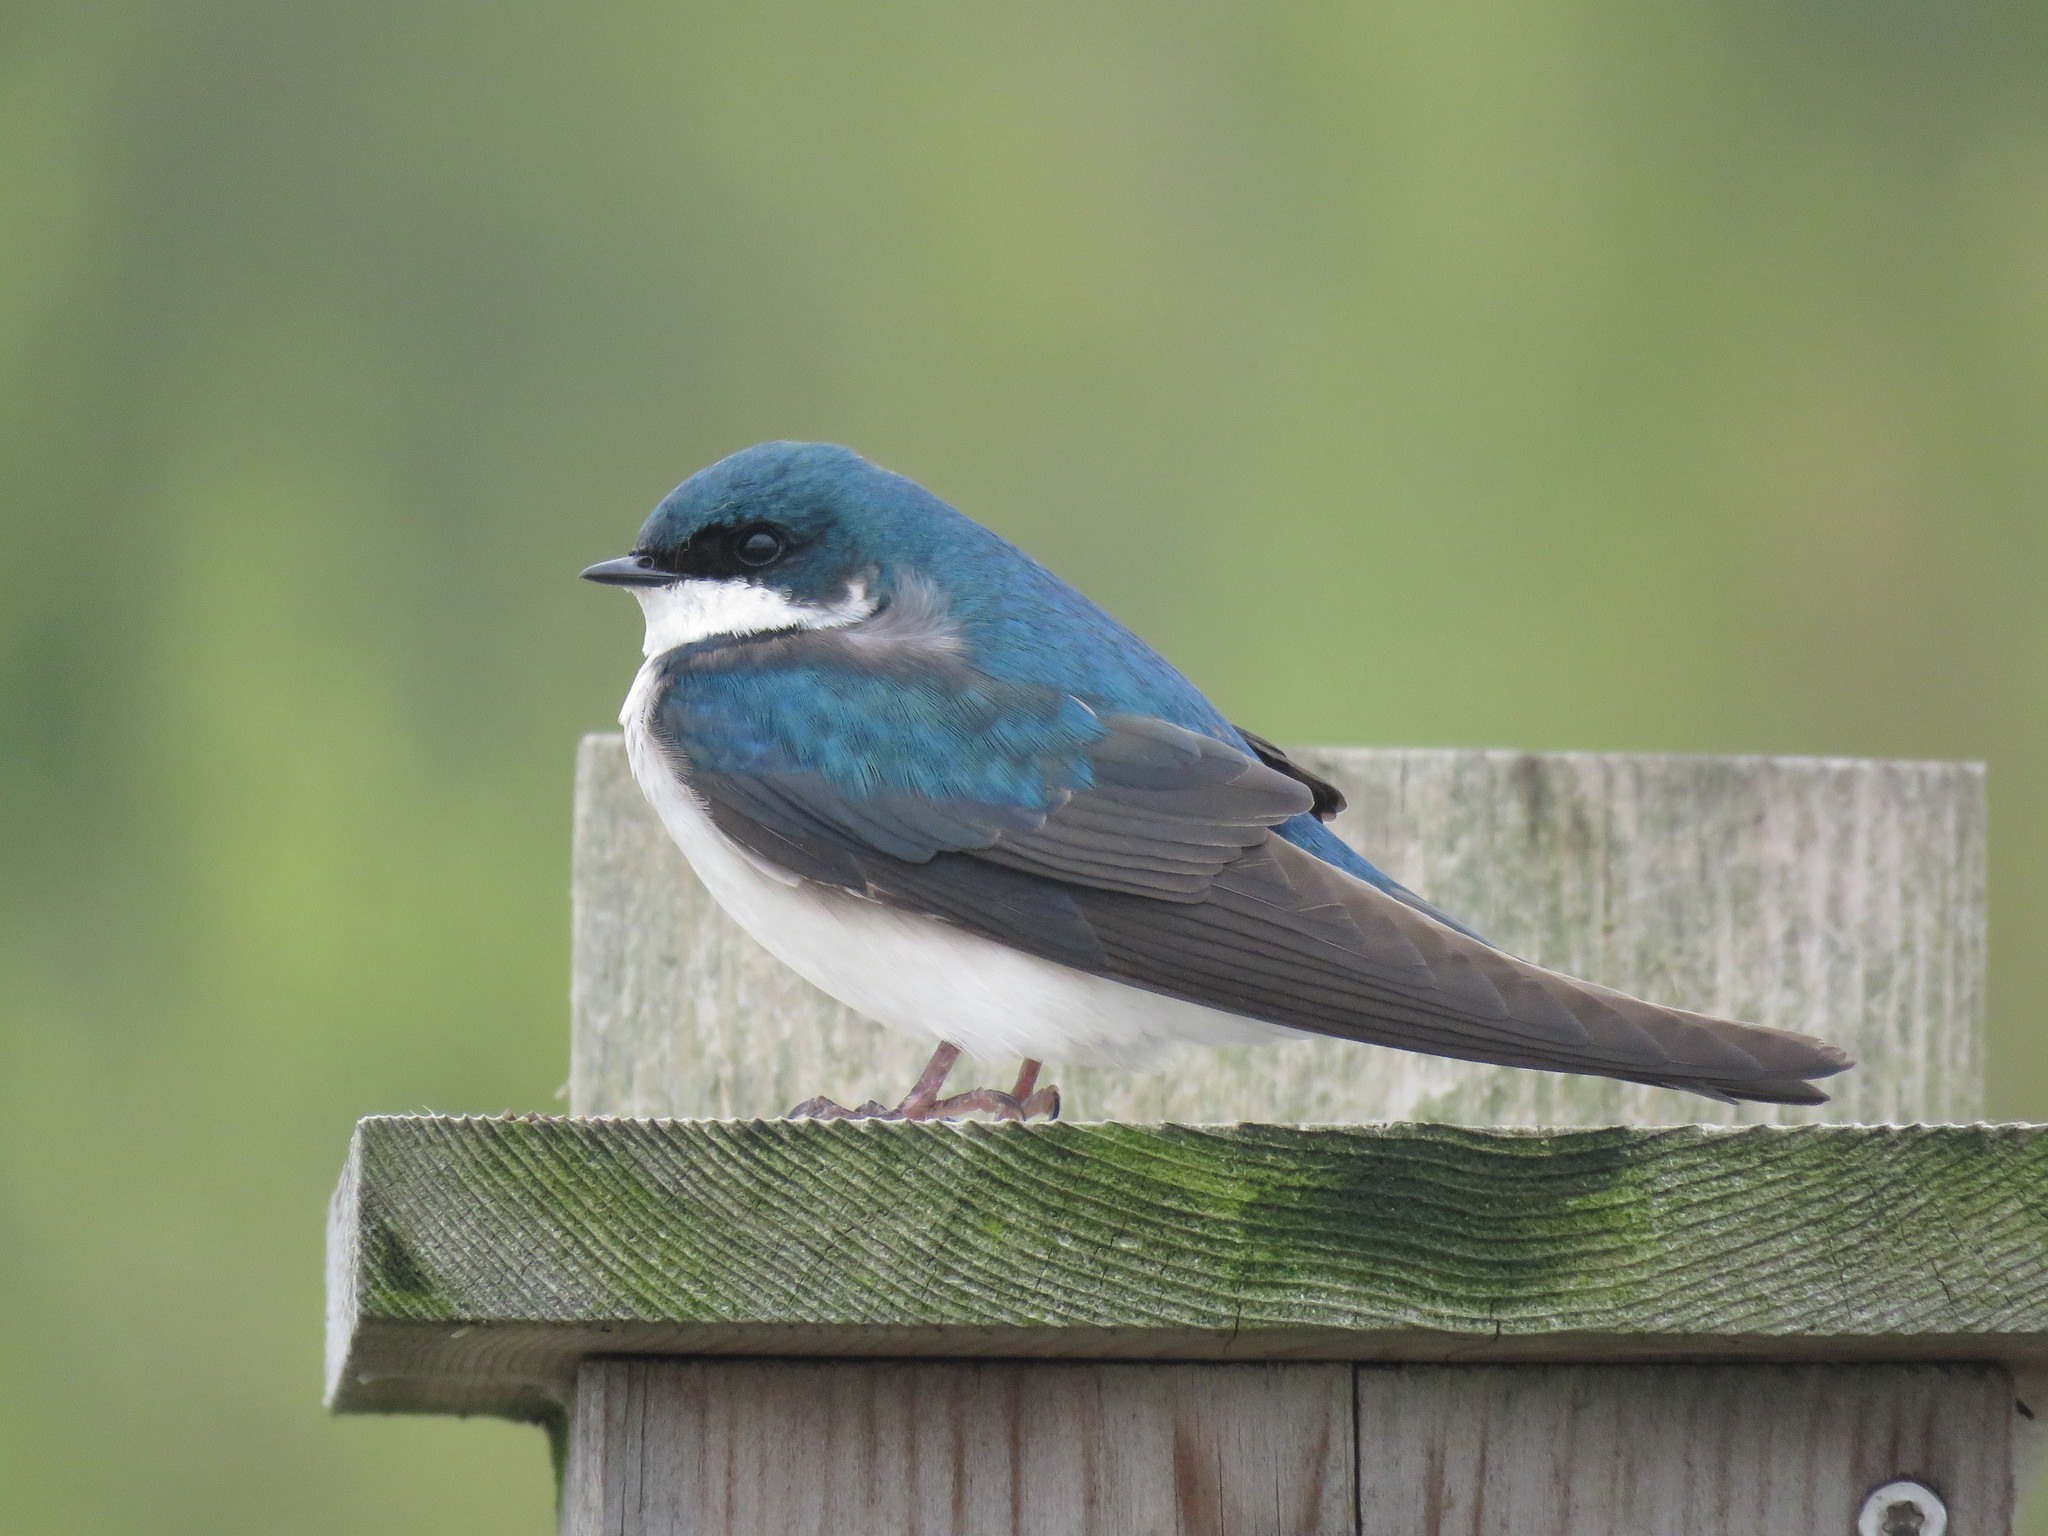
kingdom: Animalia
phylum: Chordata
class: Aves
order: Passeriformes
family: Hirundinidae
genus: Tachycineta
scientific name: Tachycineta bicolor
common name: Tree swallow
